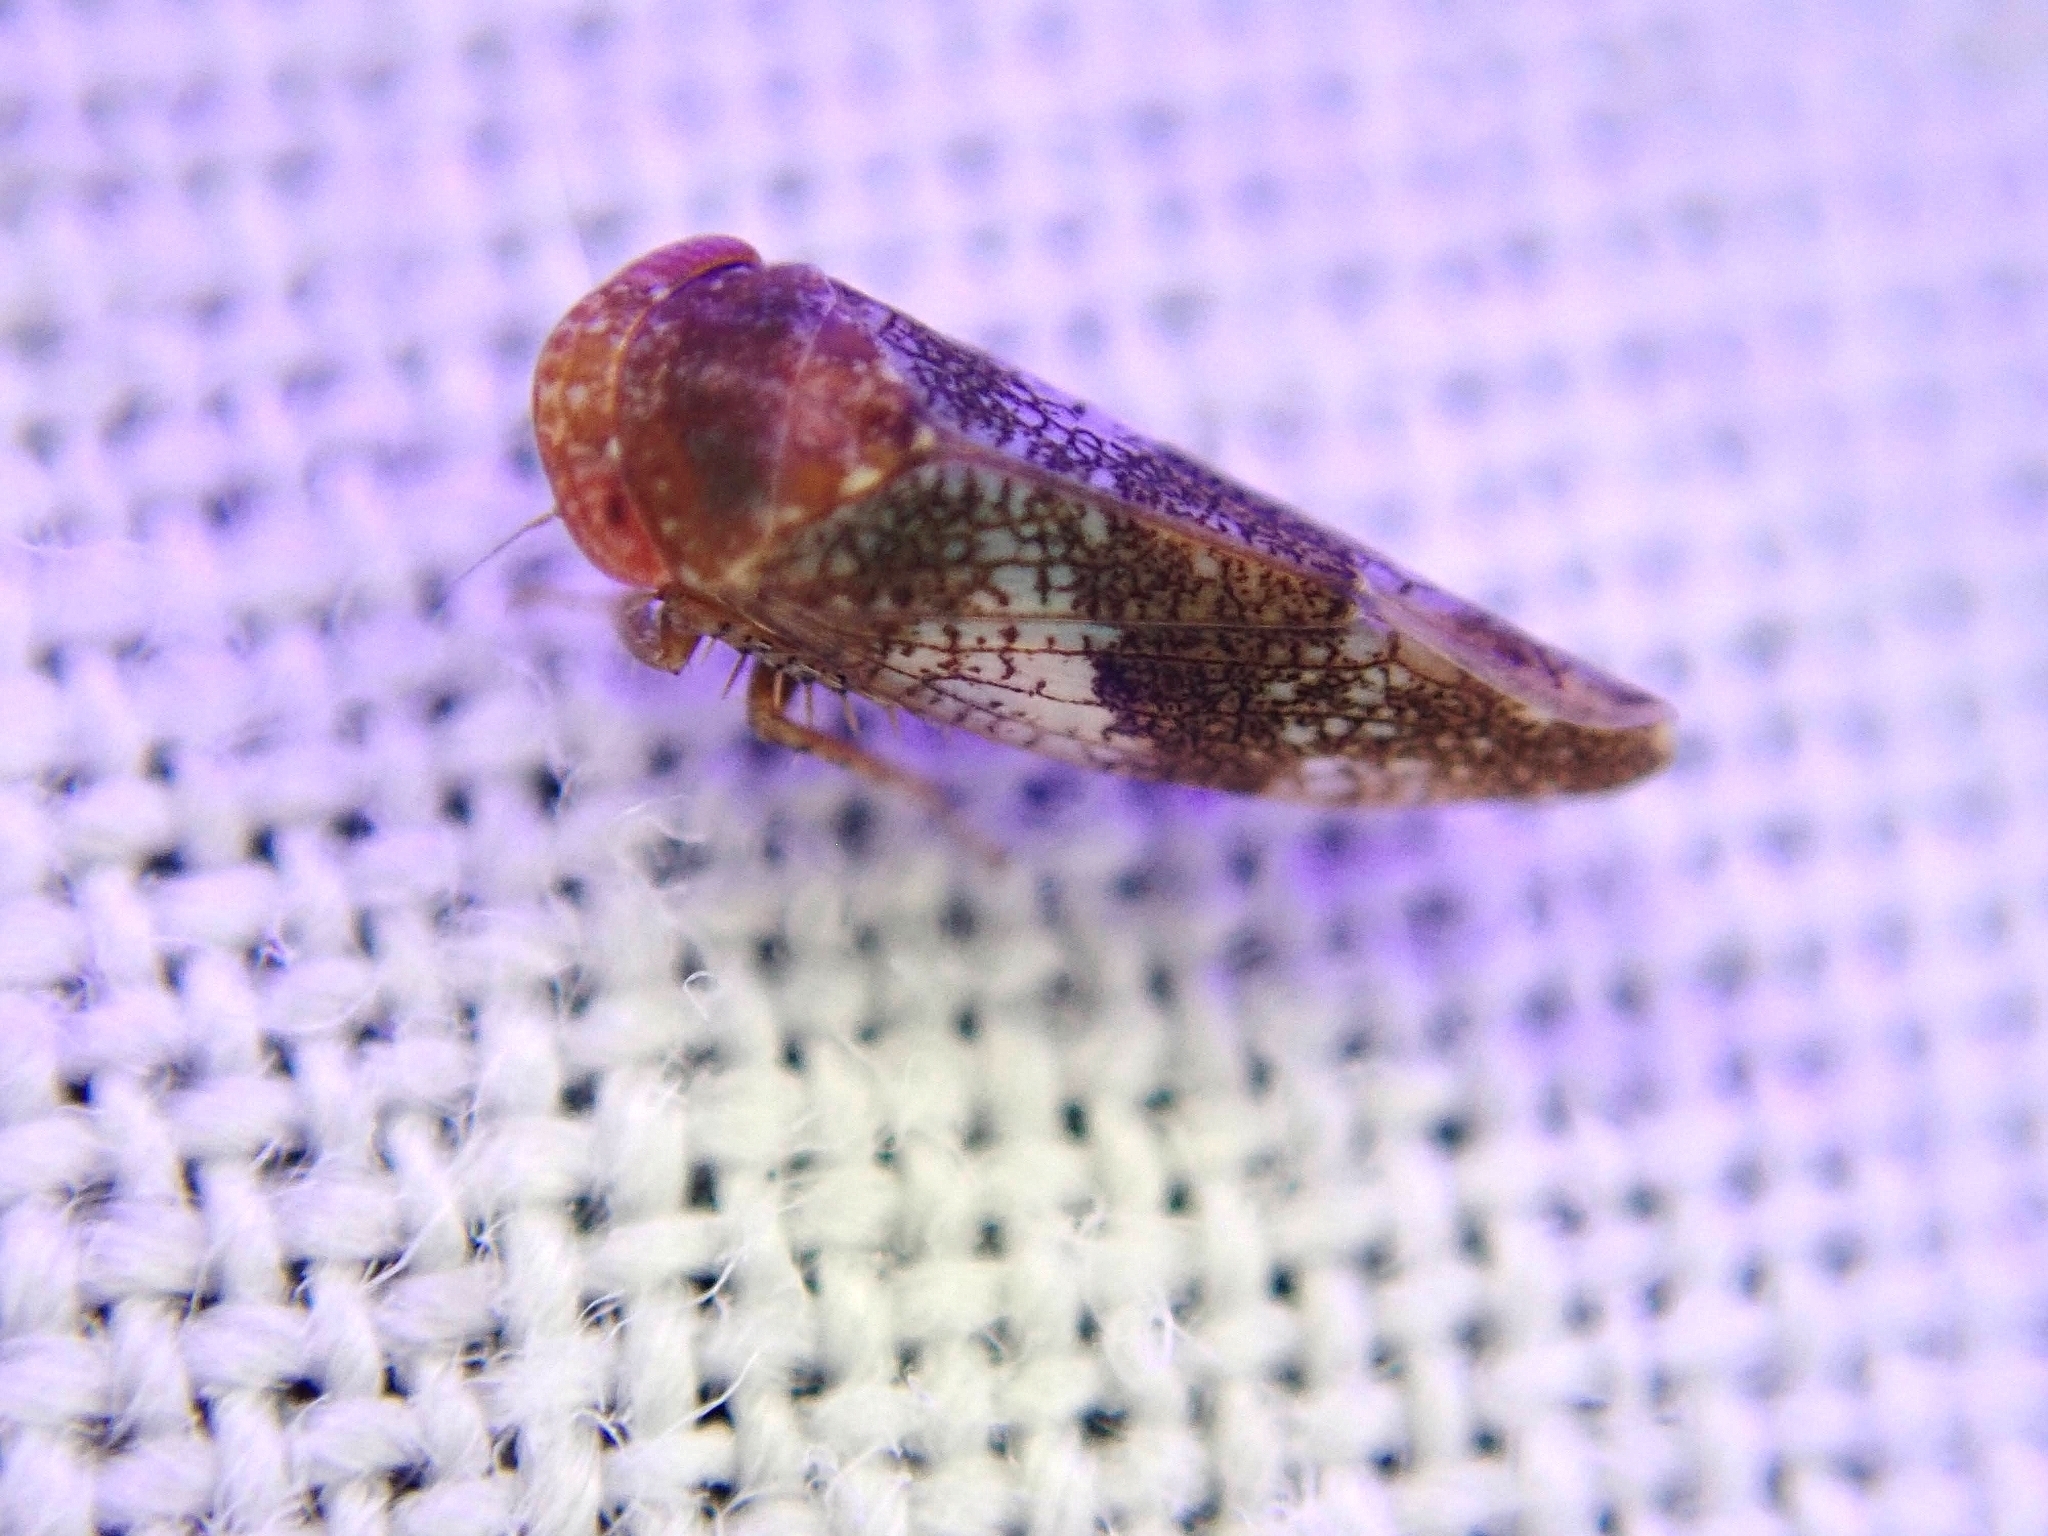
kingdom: Animalia
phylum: Arthropoda
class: Insecta
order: Hemiptera
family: Cicadellidae
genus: Norvellina
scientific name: Norvellina chenopodii
